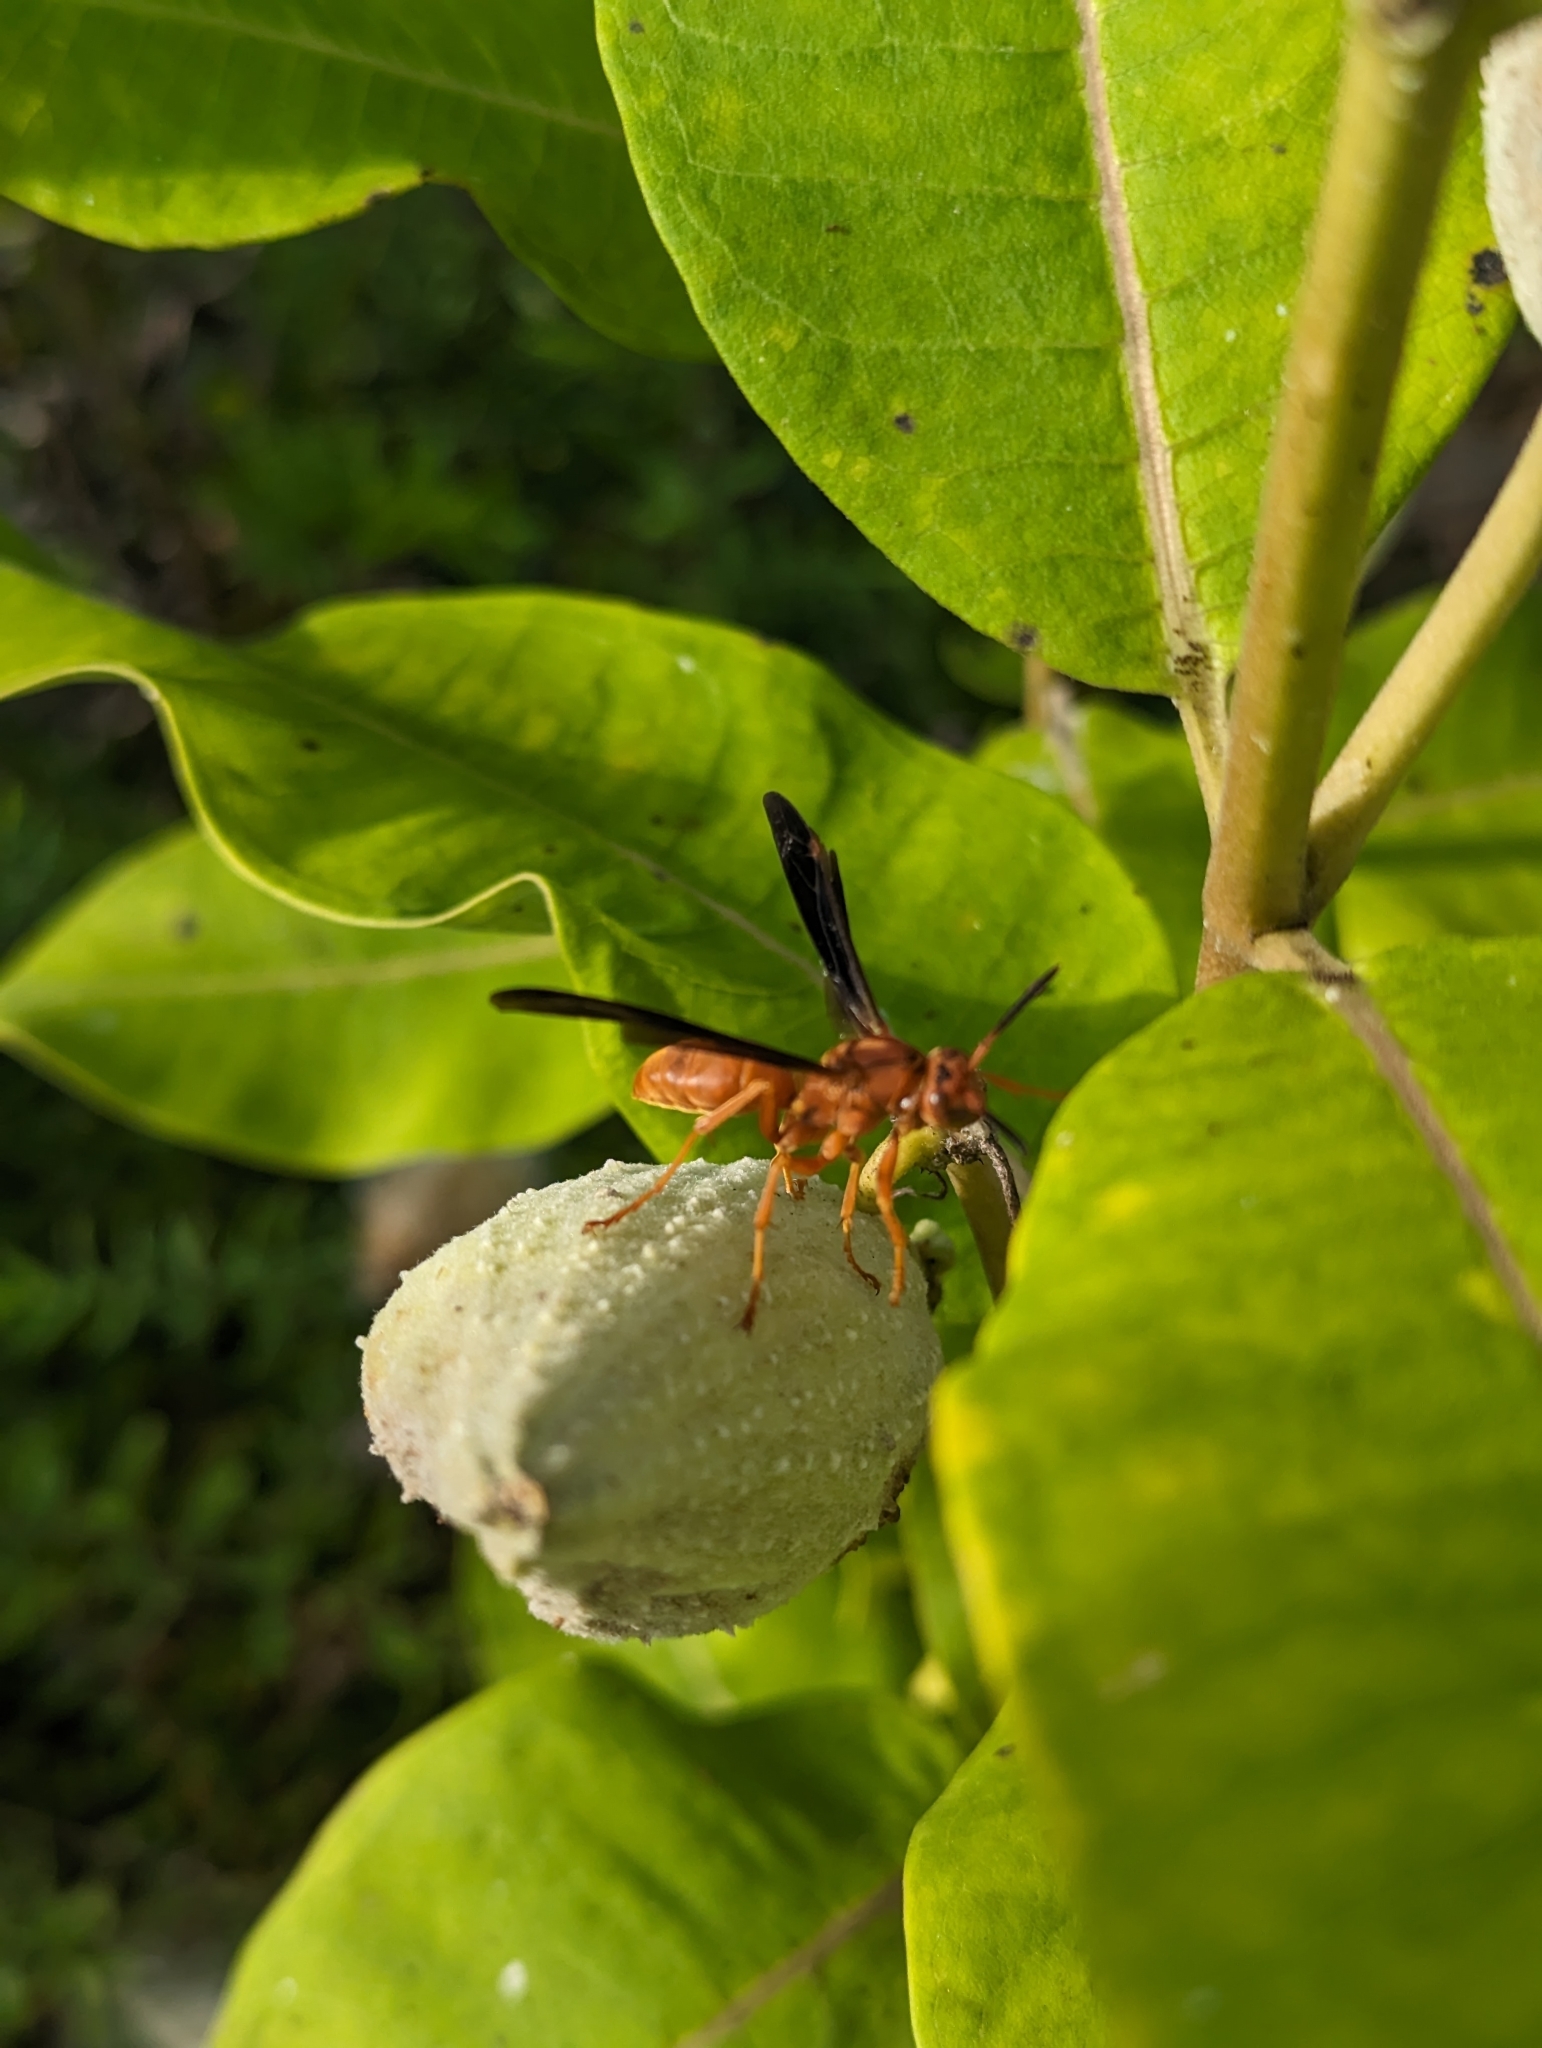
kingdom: Animalia
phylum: Arthropoda
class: Insecta
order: Hymenoptera
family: Vespidae
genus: Fuscopolistes
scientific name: Fuscopolistes
